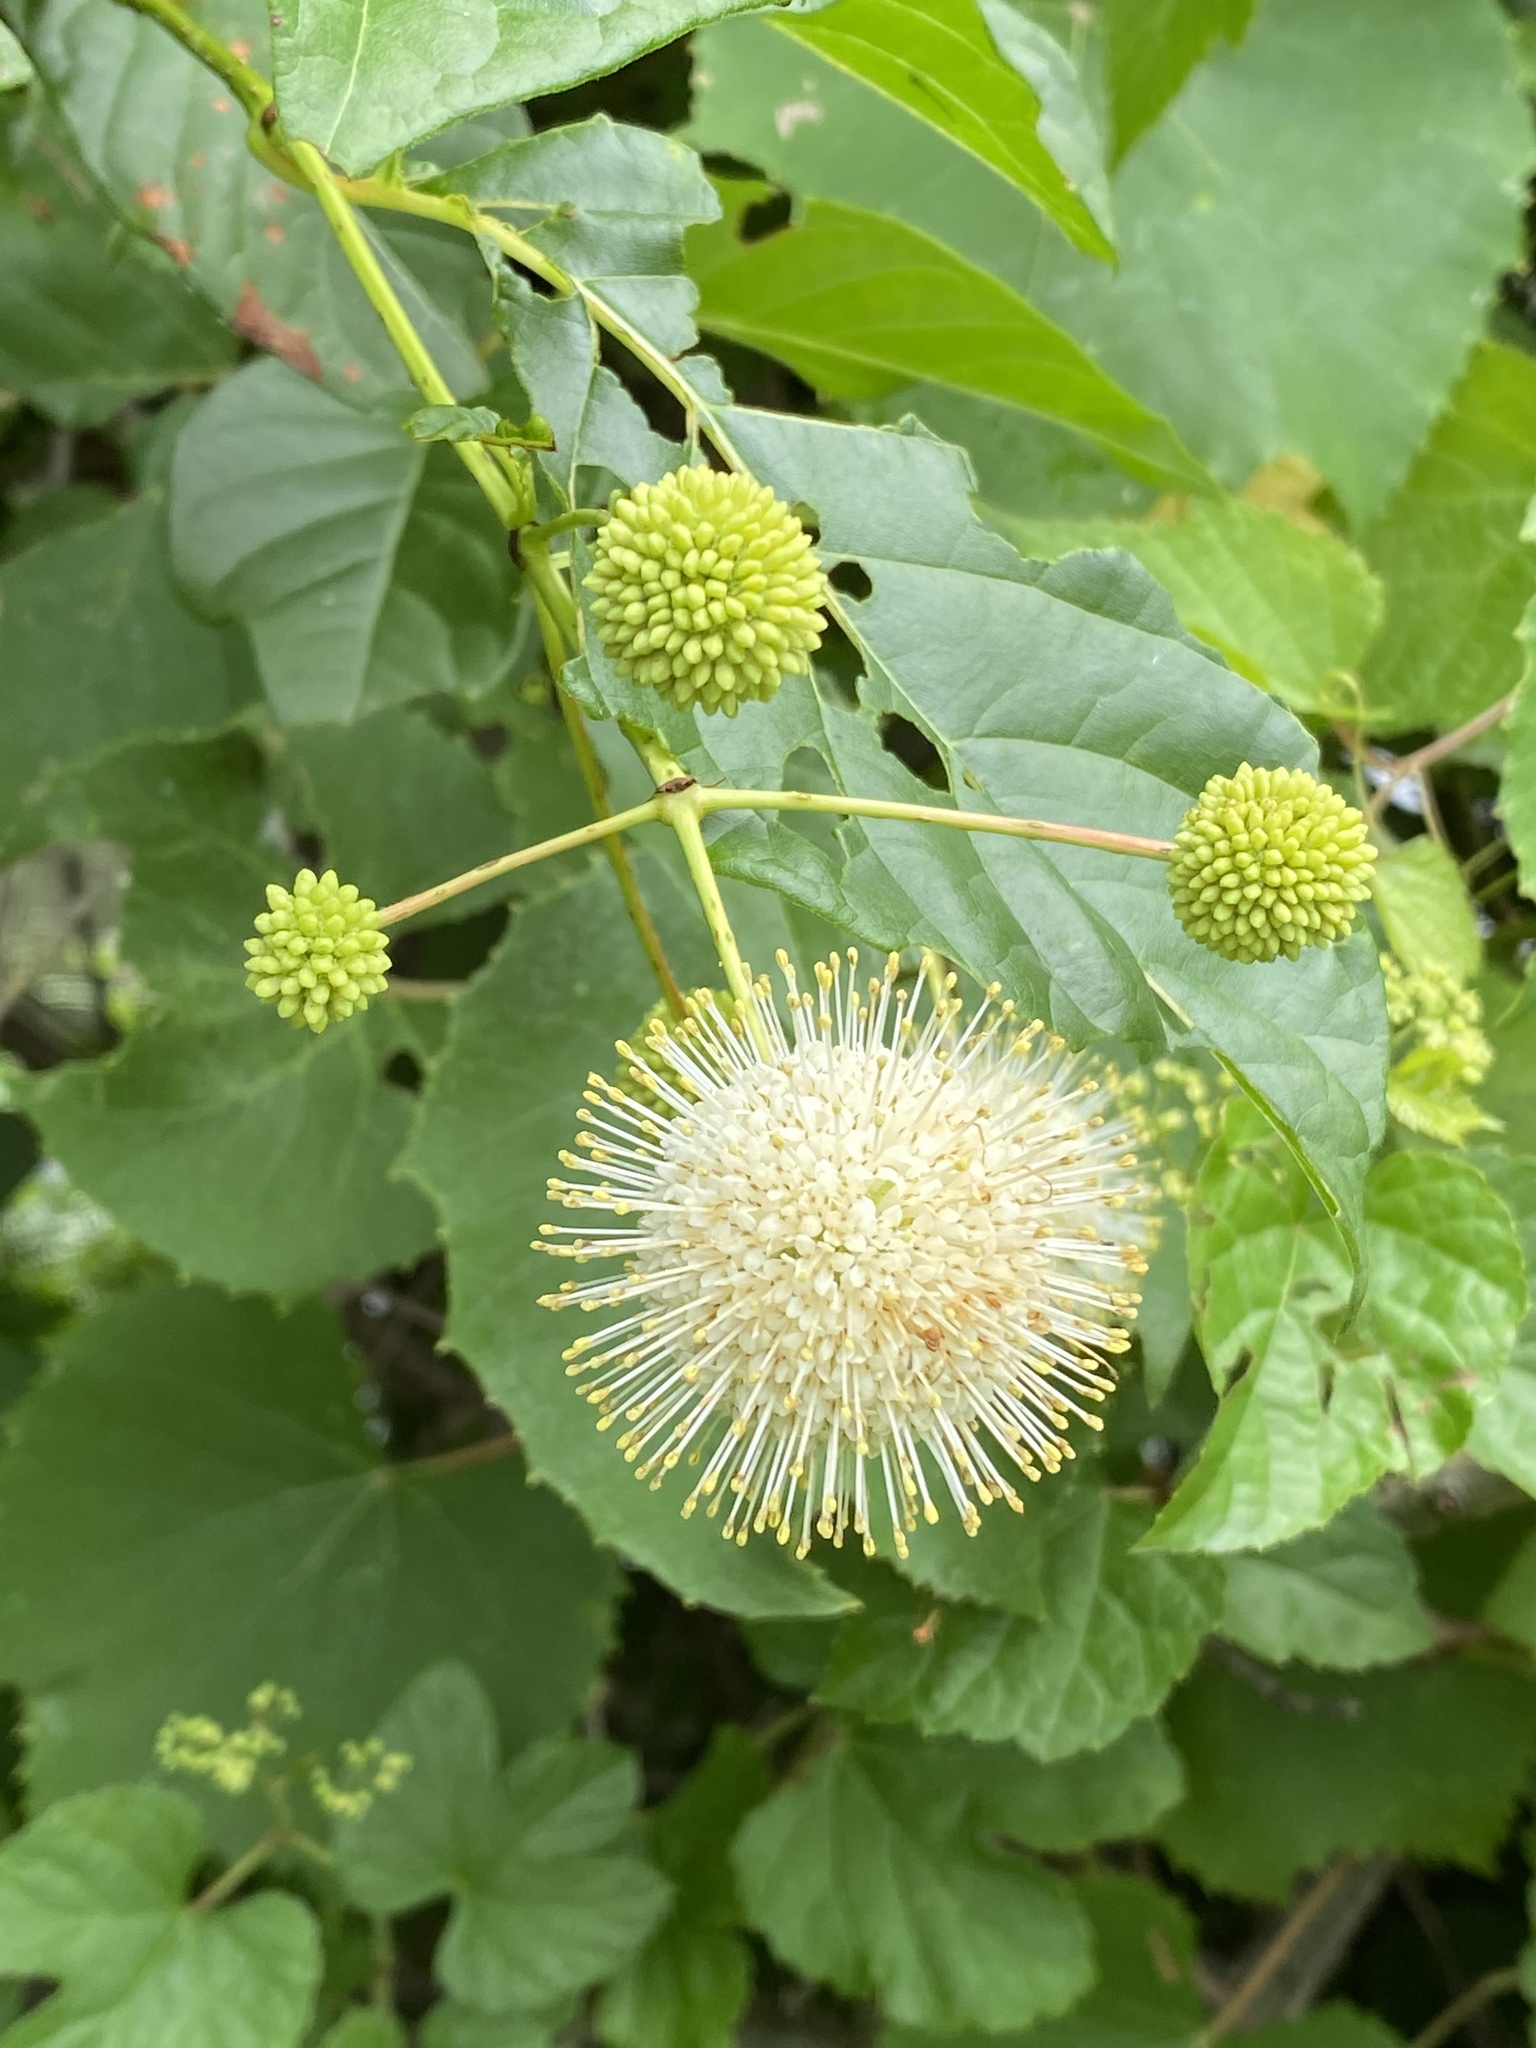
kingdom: Plantae
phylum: Tracheophyta
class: Magnoliopsida
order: Gentianales
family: Rubiaceae
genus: Cephalanthus
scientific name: Cephalanthus occidentalis
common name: Button-willow
